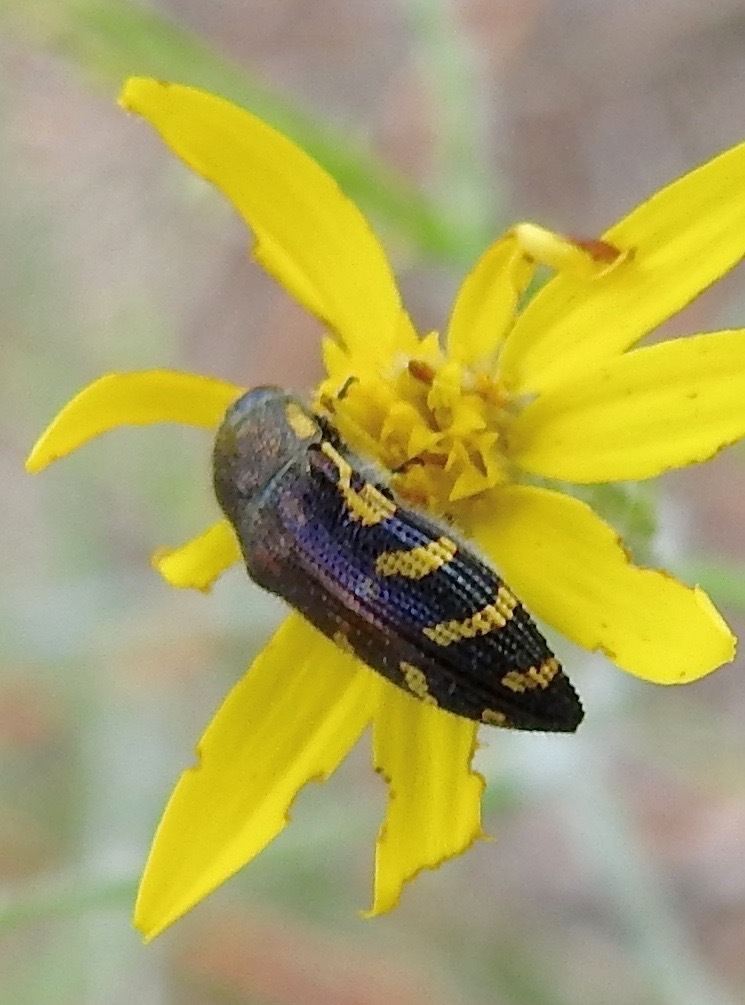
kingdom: Animalia
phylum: Arthropoda
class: Insecta
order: Coleoptera
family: Buprestidae
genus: Acmaeodera
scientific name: Acmaeodera pulchella
